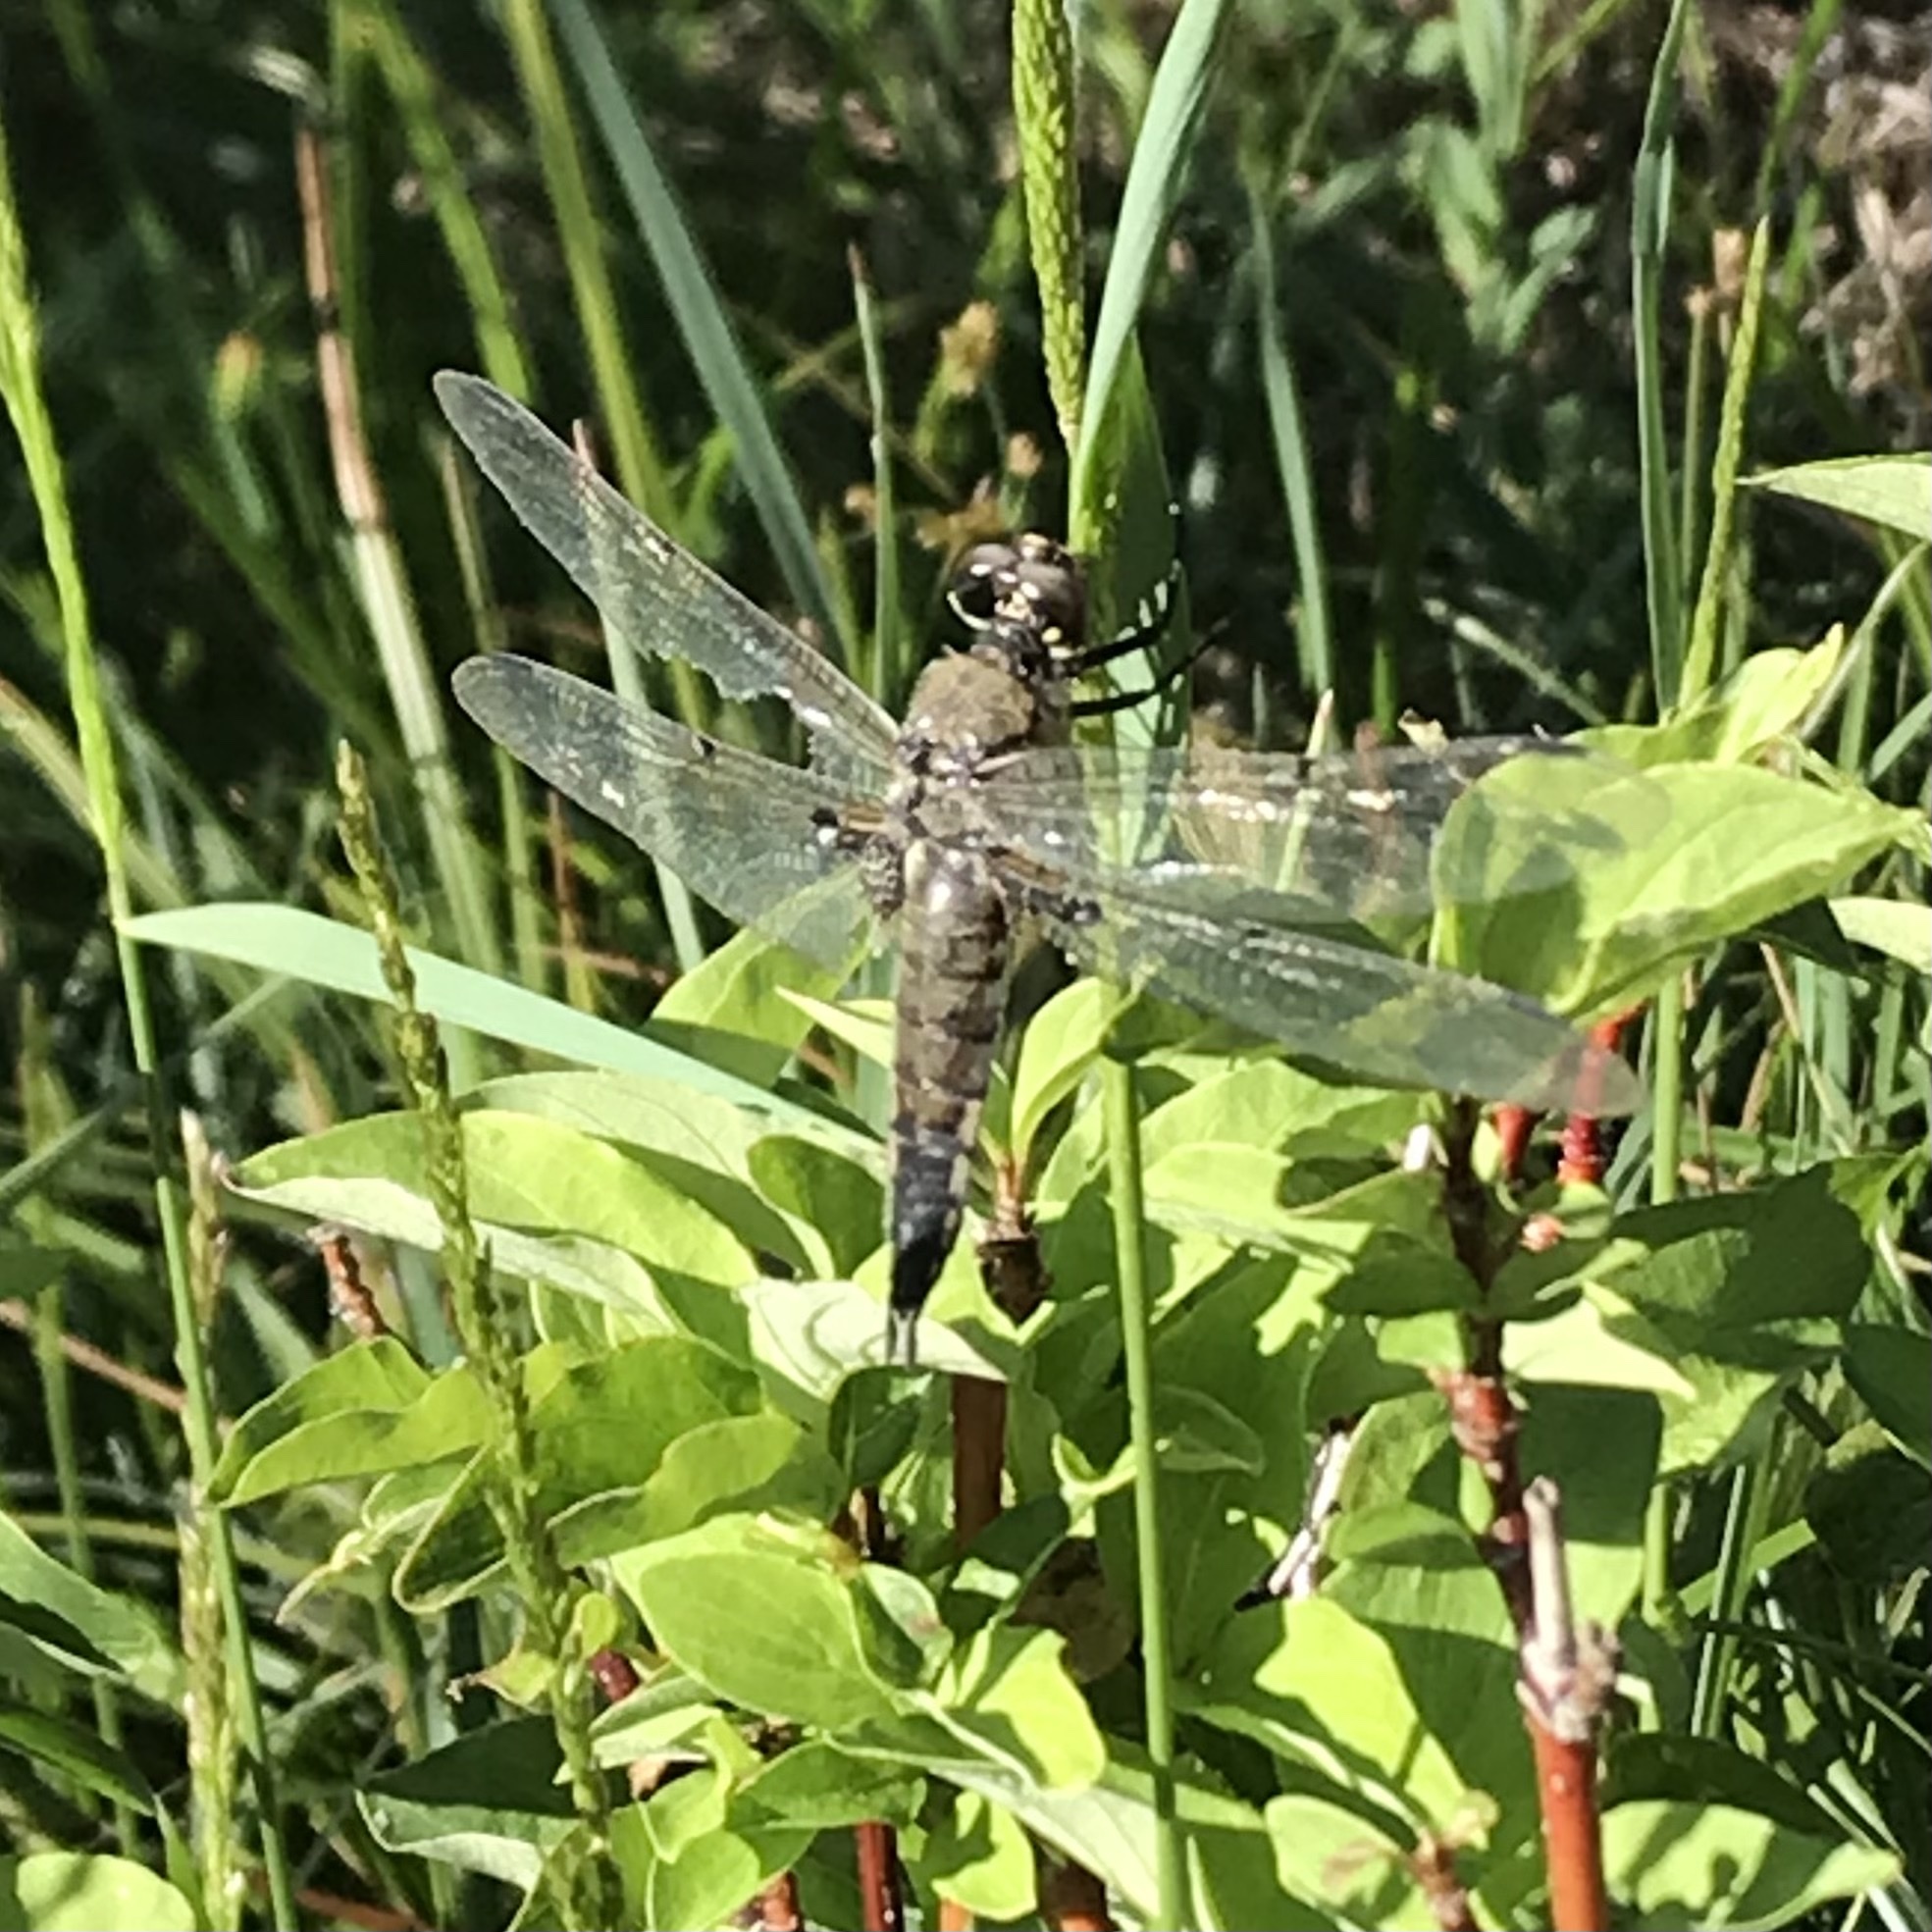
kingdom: Animalia
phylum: Arthropoda
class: Insecta
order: Odonata
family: Libellulidae
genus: Libellula
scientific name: Libellula quadrimaculata
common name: Four-spotted chaser
